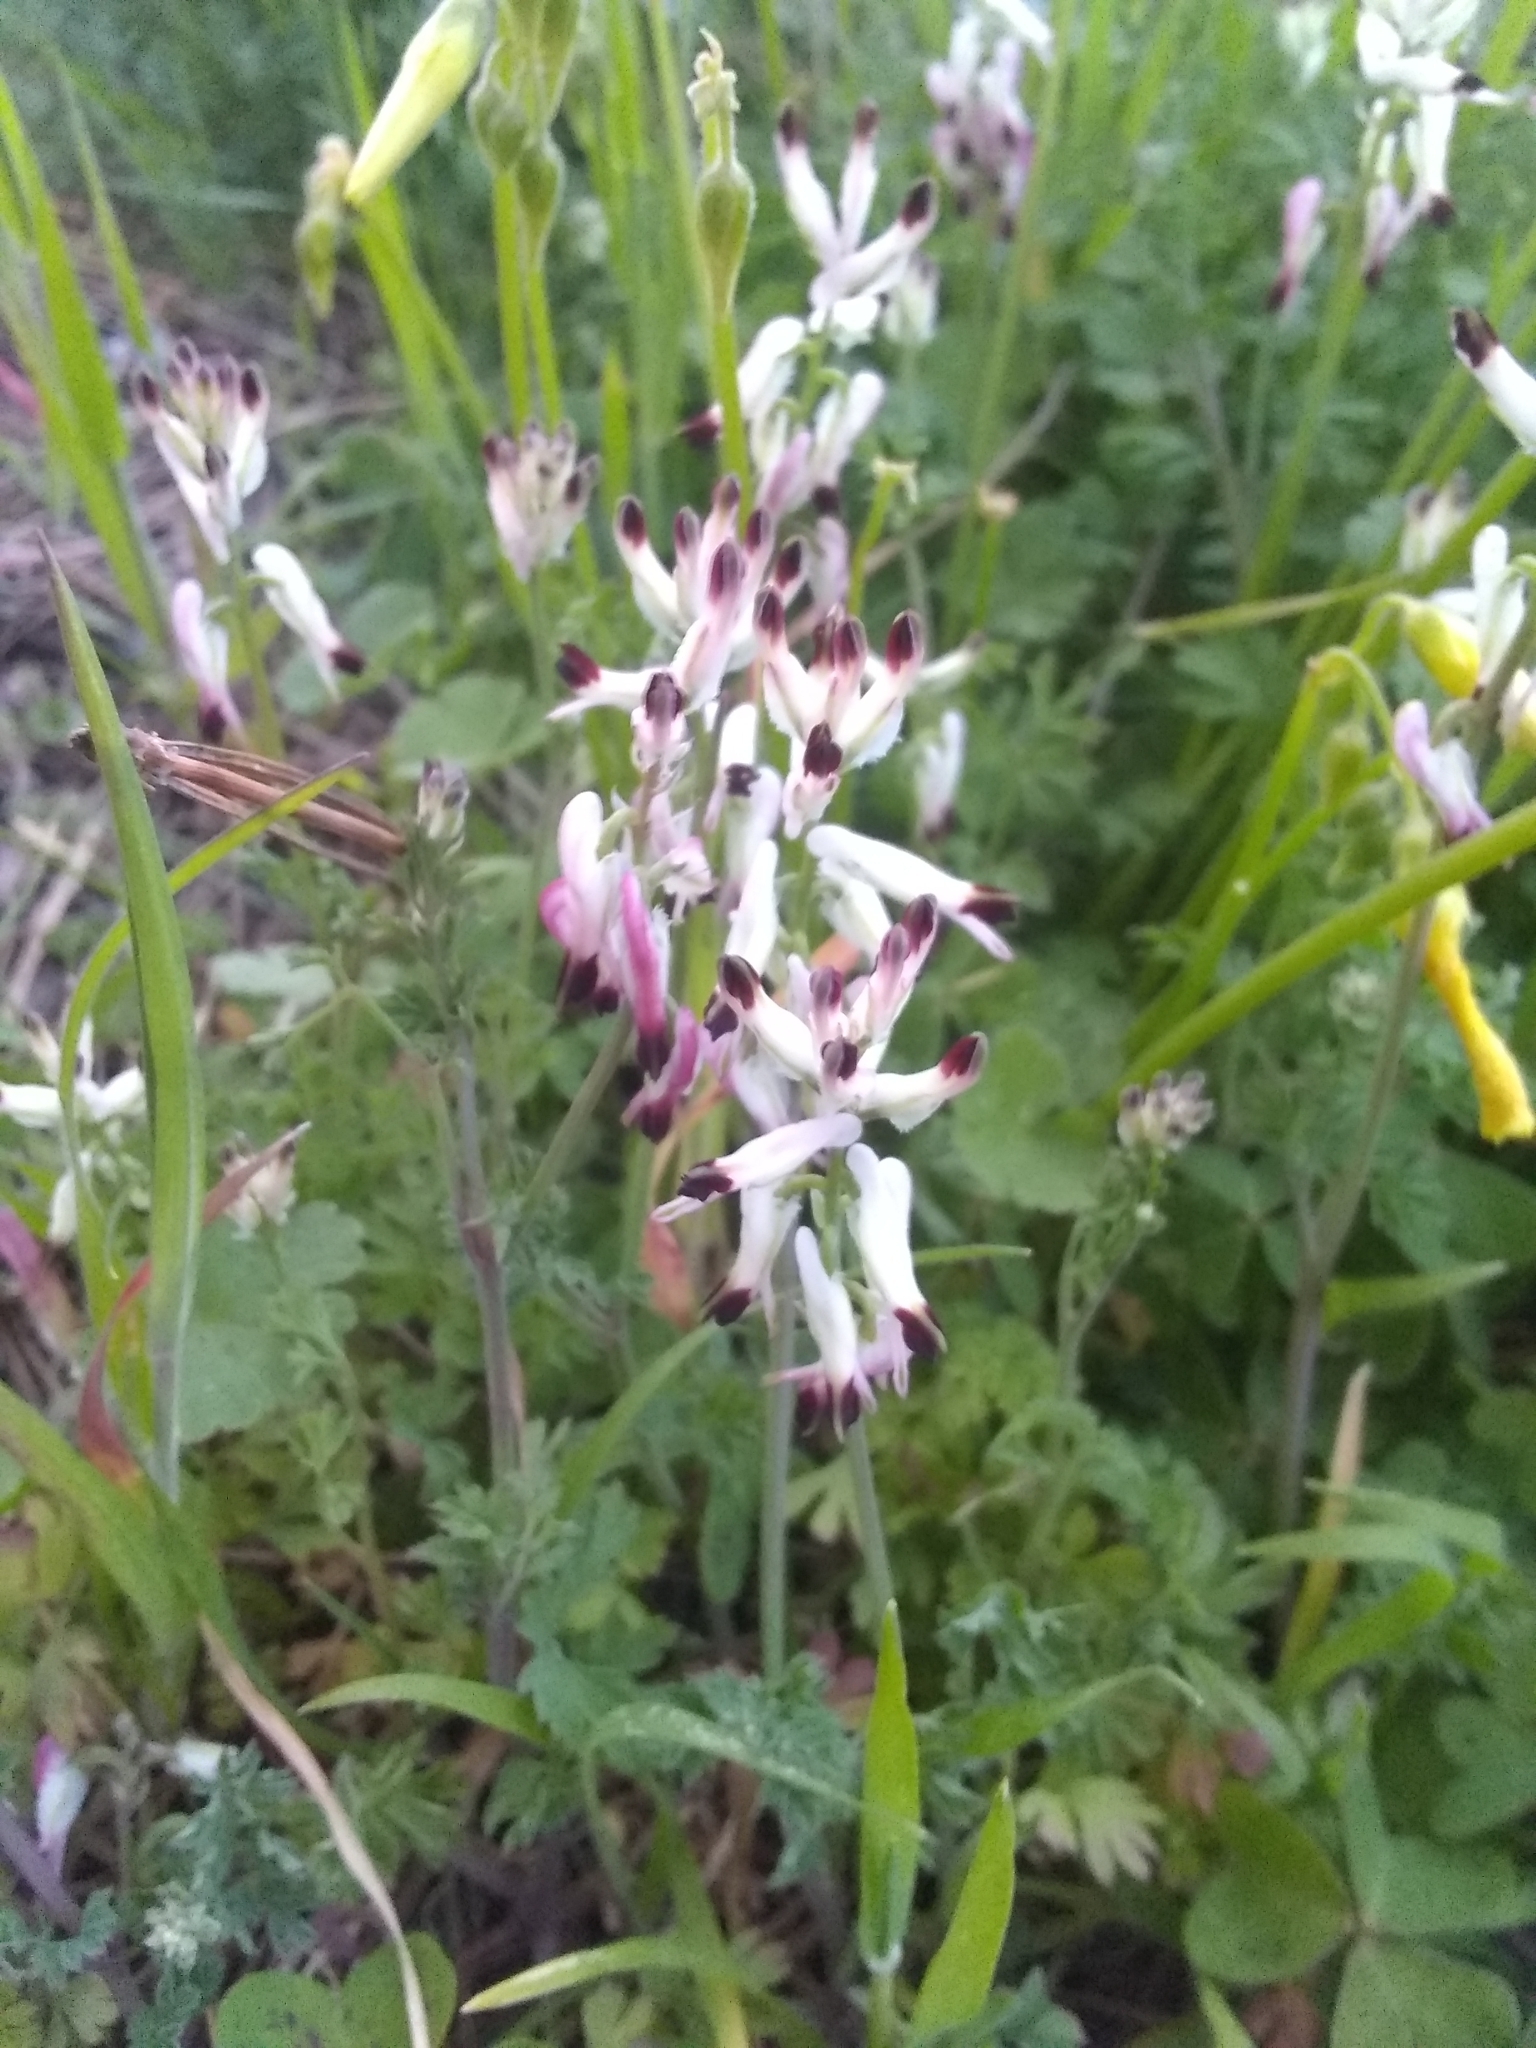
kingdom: Plantae
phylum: Tracheophyta
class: Magnoliopsida
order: Ranunculales
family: Papaveraceae
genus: Fumaria
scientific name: Fumaria capreolata
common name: White ramping-fumitory
